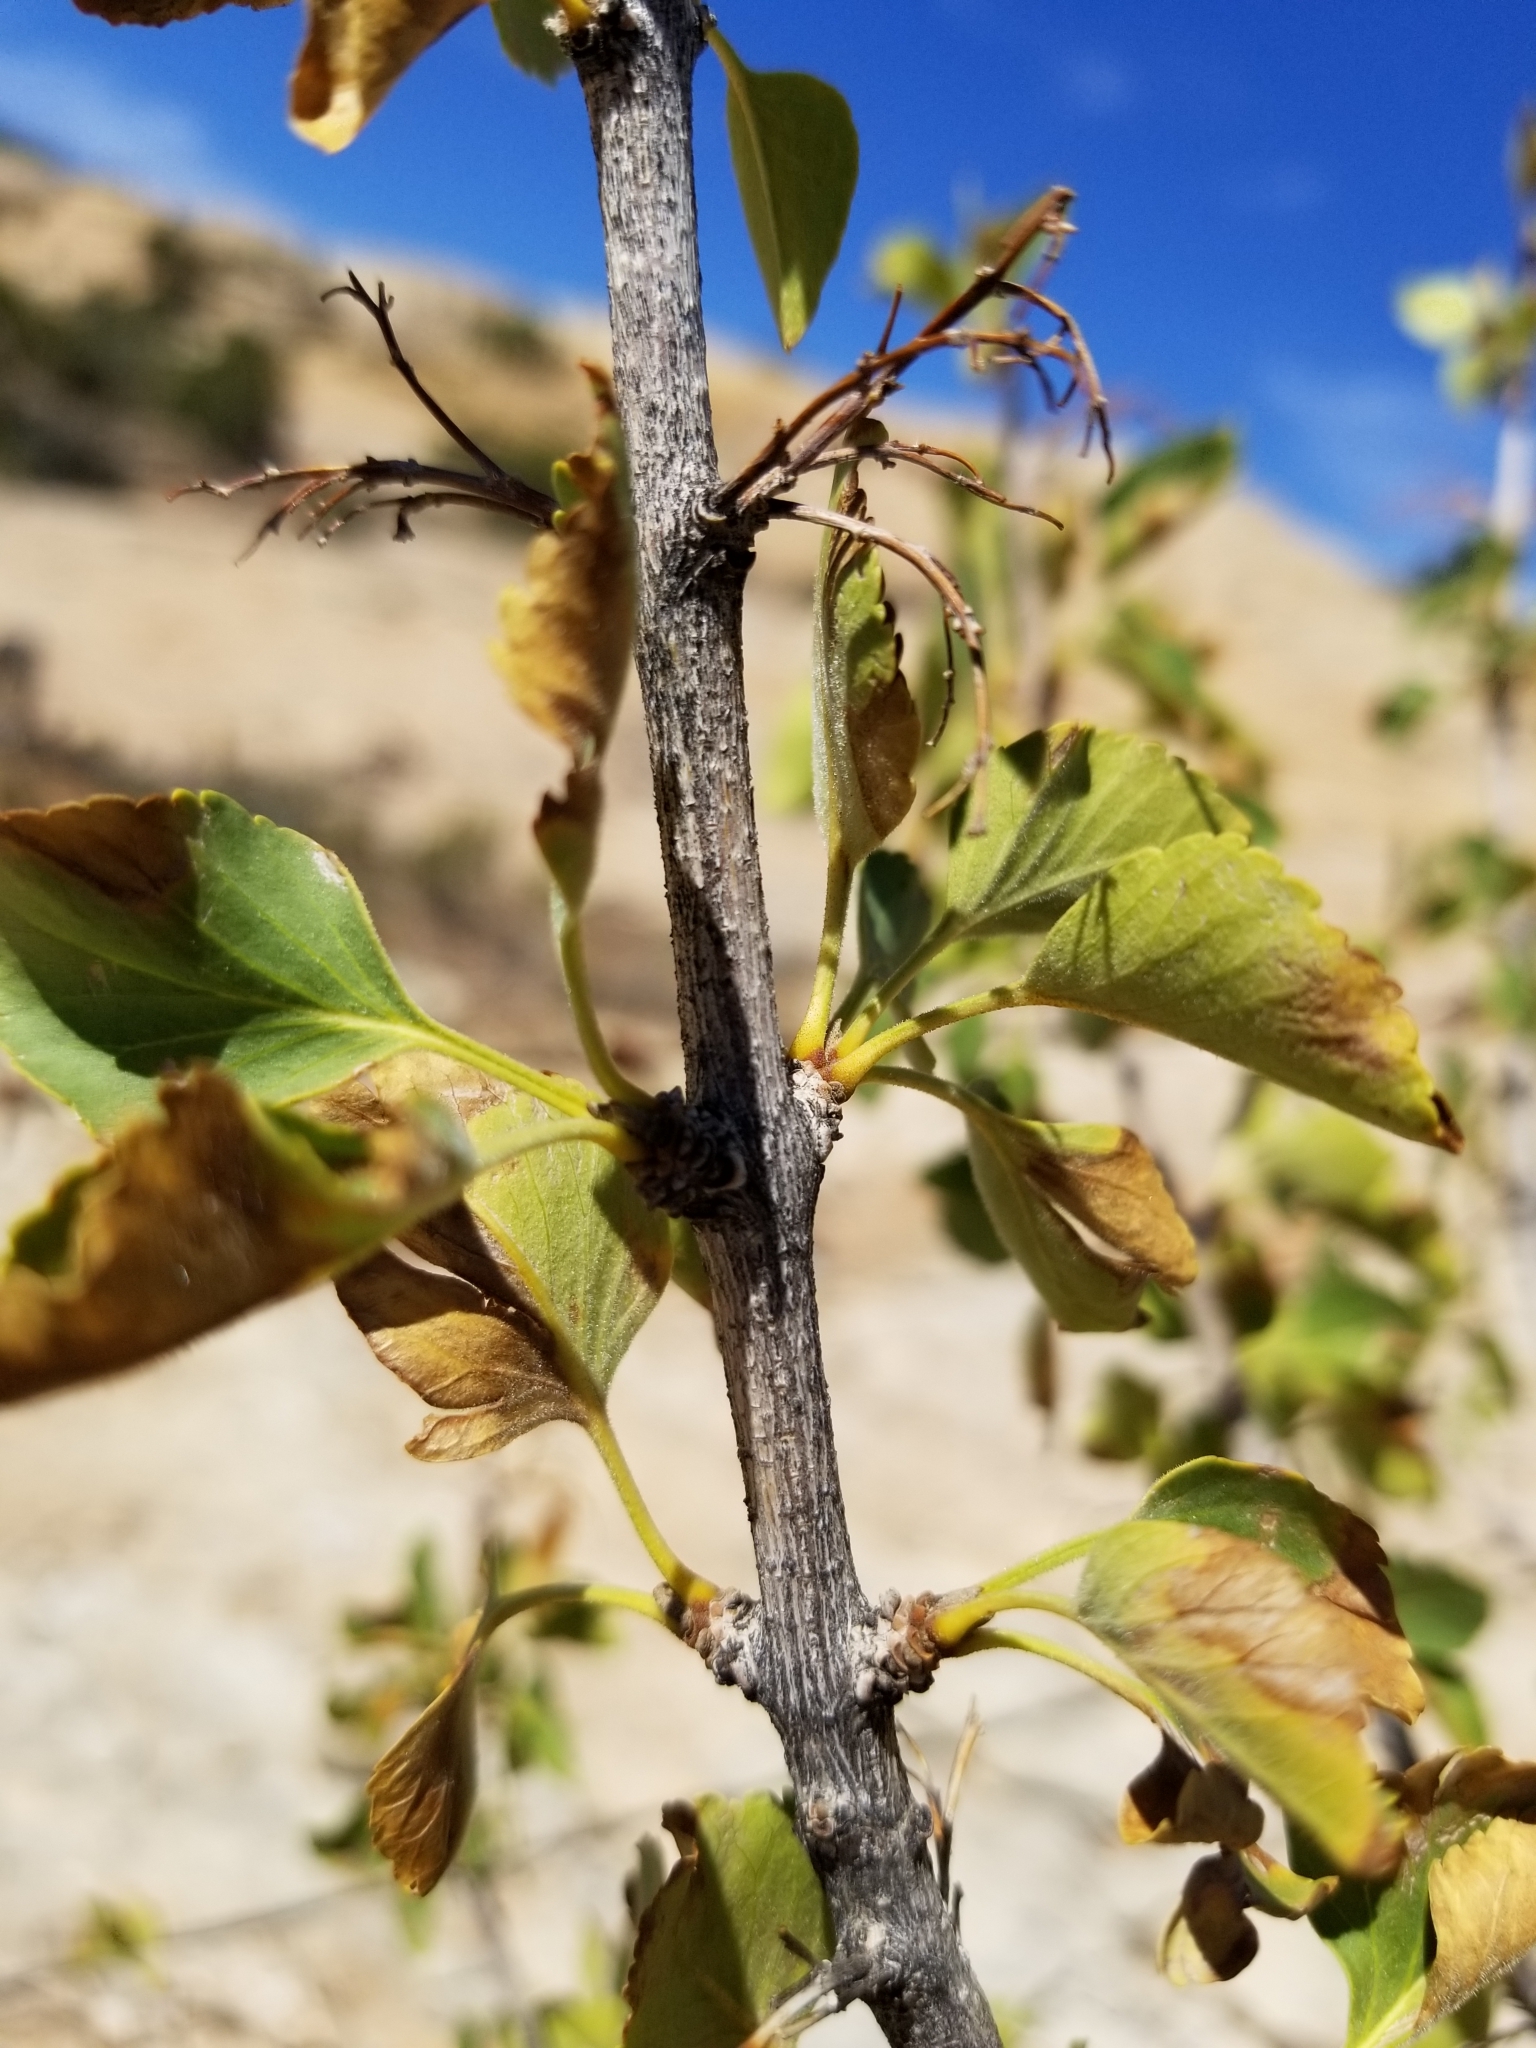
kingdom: Plantae
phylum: Tracheophyta
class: Magnoliopsida
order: Lamiales
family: Oleaceae
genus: Fraxinus
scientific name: Fraxinus anomala
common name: Utah ash
